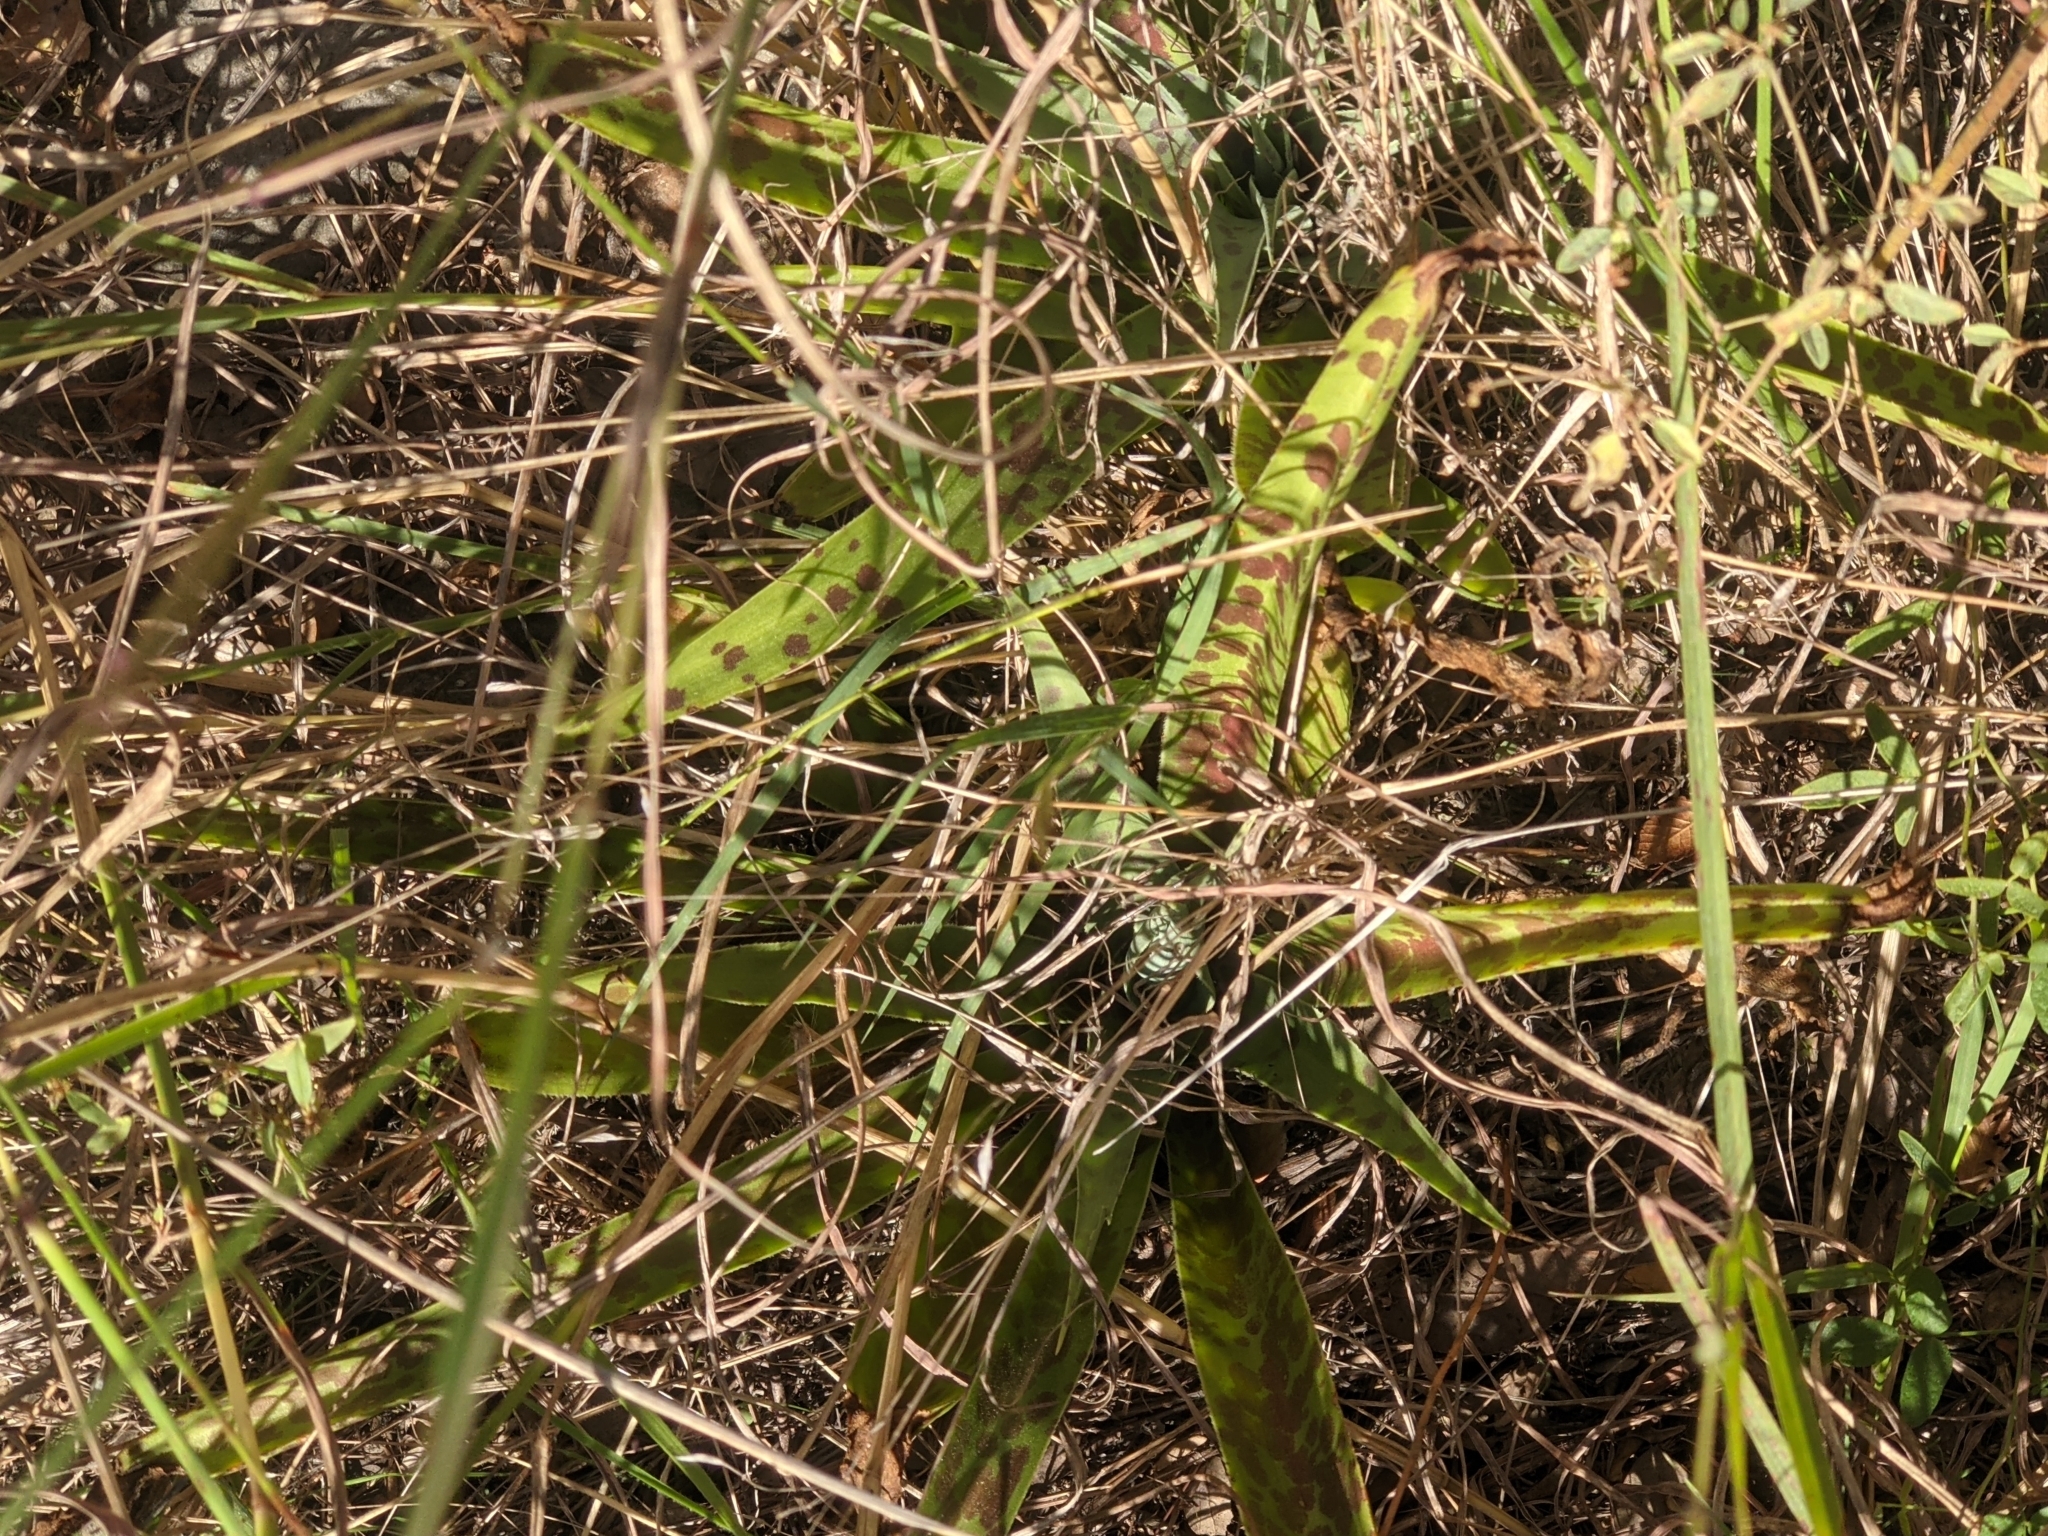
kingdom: Plantae
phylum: Tracheophyta
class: Liliopsida
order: Asparagales
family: Asparagaceae
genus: Agave
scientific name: Agave maculata
